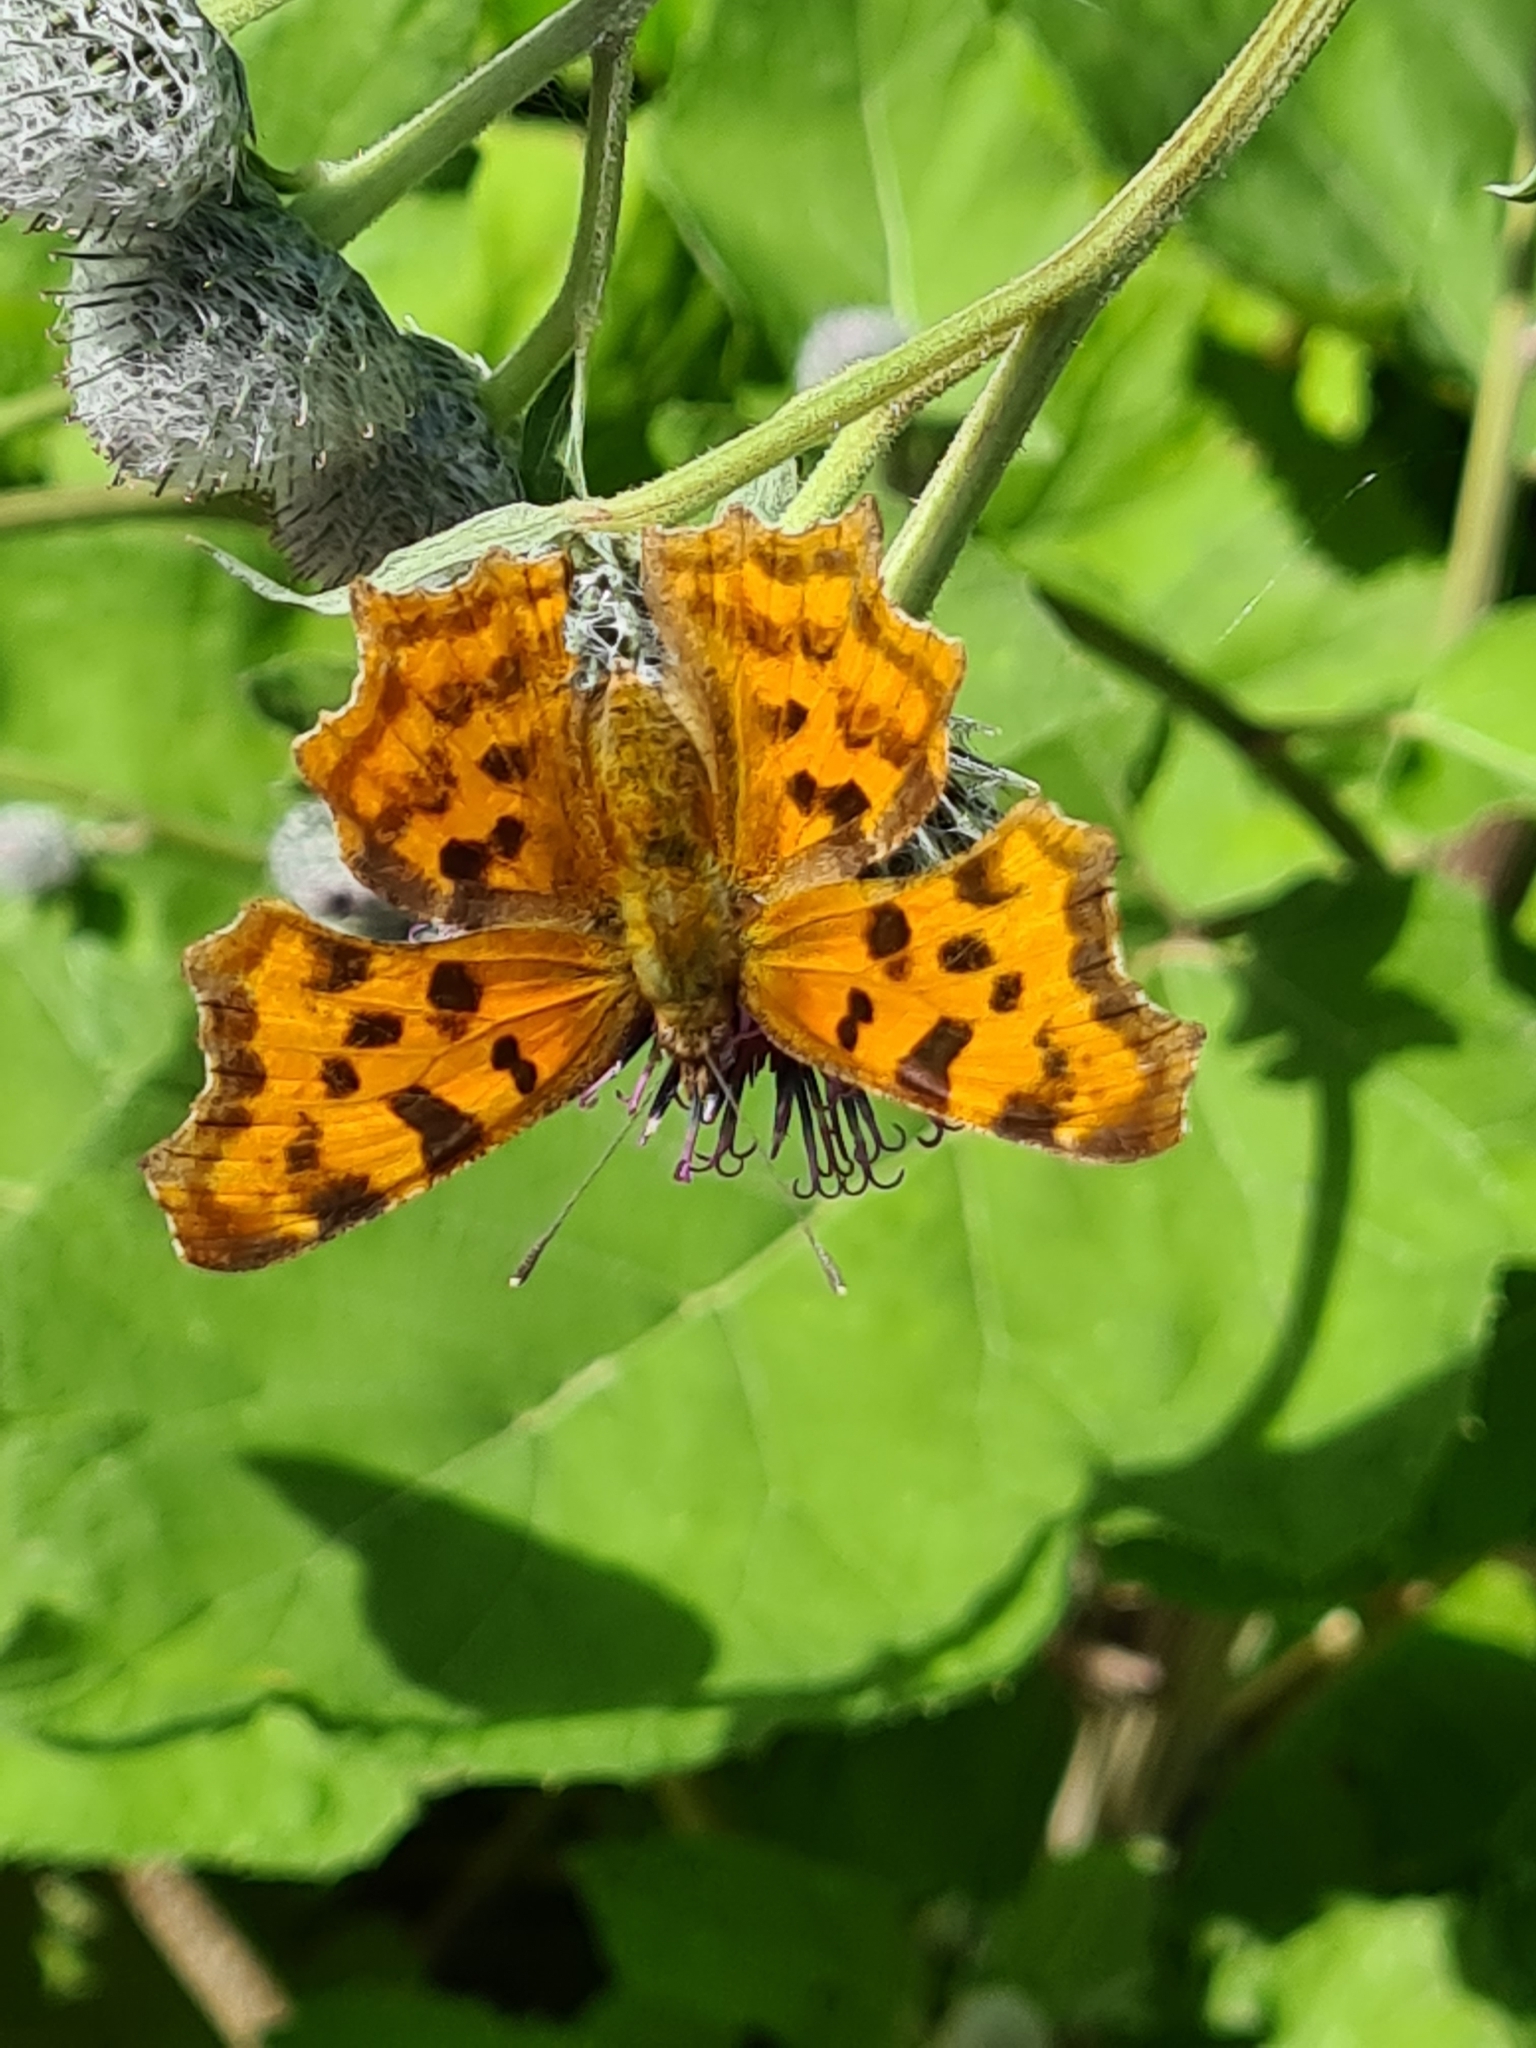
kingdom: Animalia
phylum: Arthropoda
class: Insecta
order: Lepidoptera
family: Nymphalidae
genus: Polygonia
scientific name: Polygonia c-album
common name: Comma
